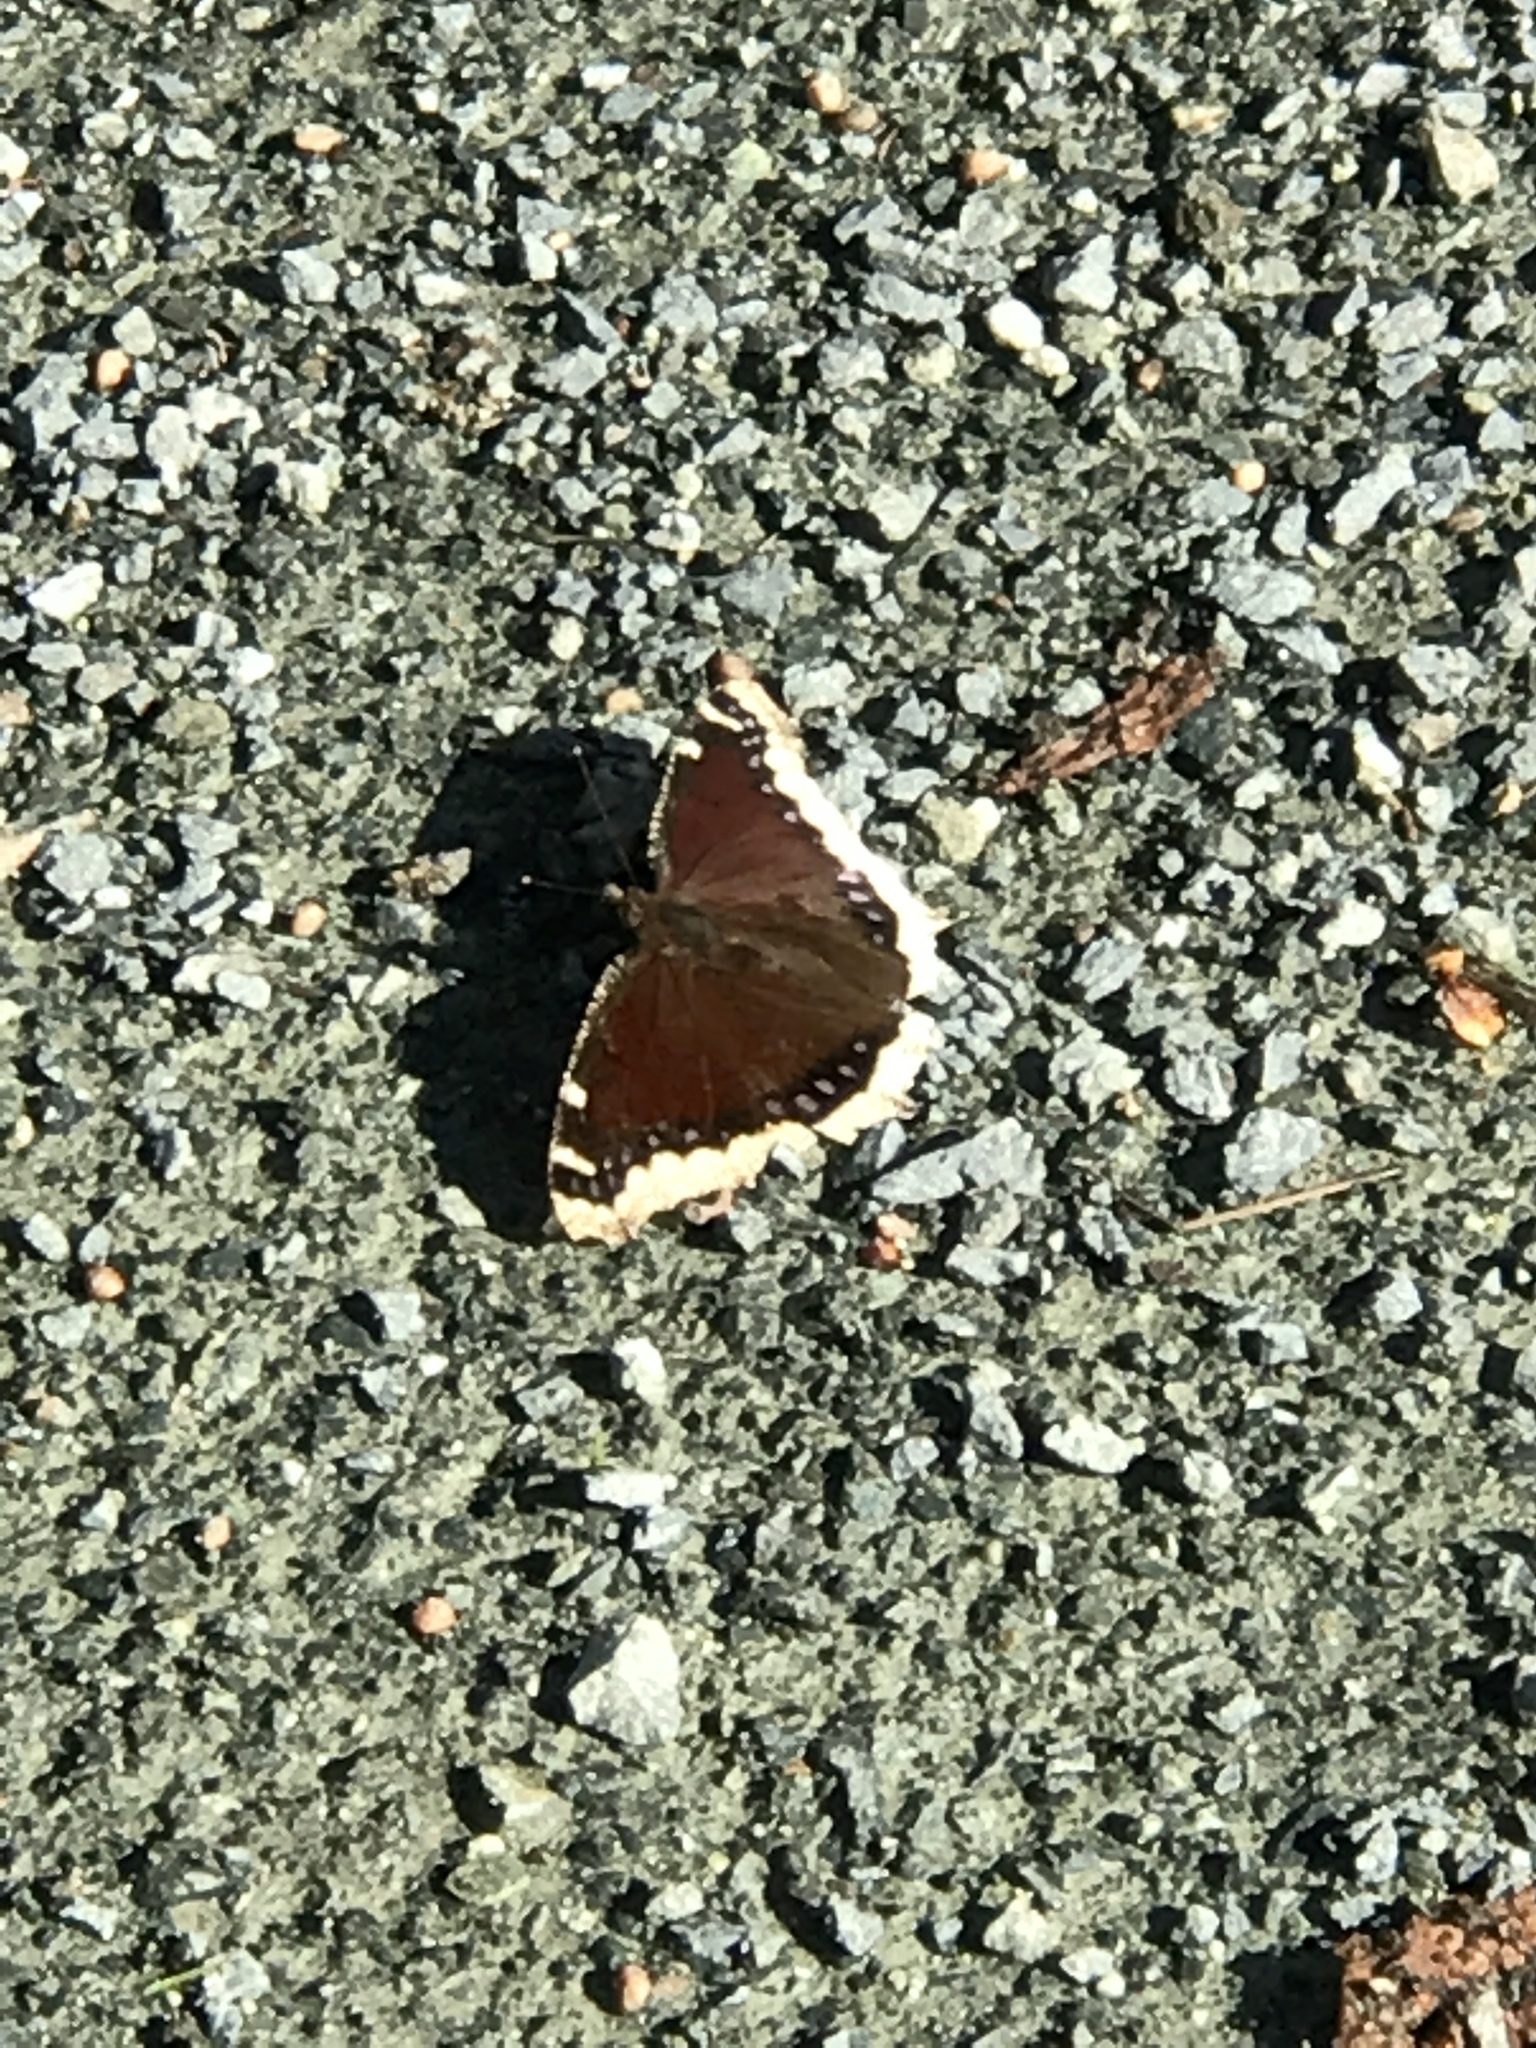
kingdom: Animalia
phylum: Arthropoda
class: Insecta
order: Lepidoptera
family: Nymphalidae
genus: Nymphalis
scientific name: Nymphalis antiopa
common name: Camberwell beauty
